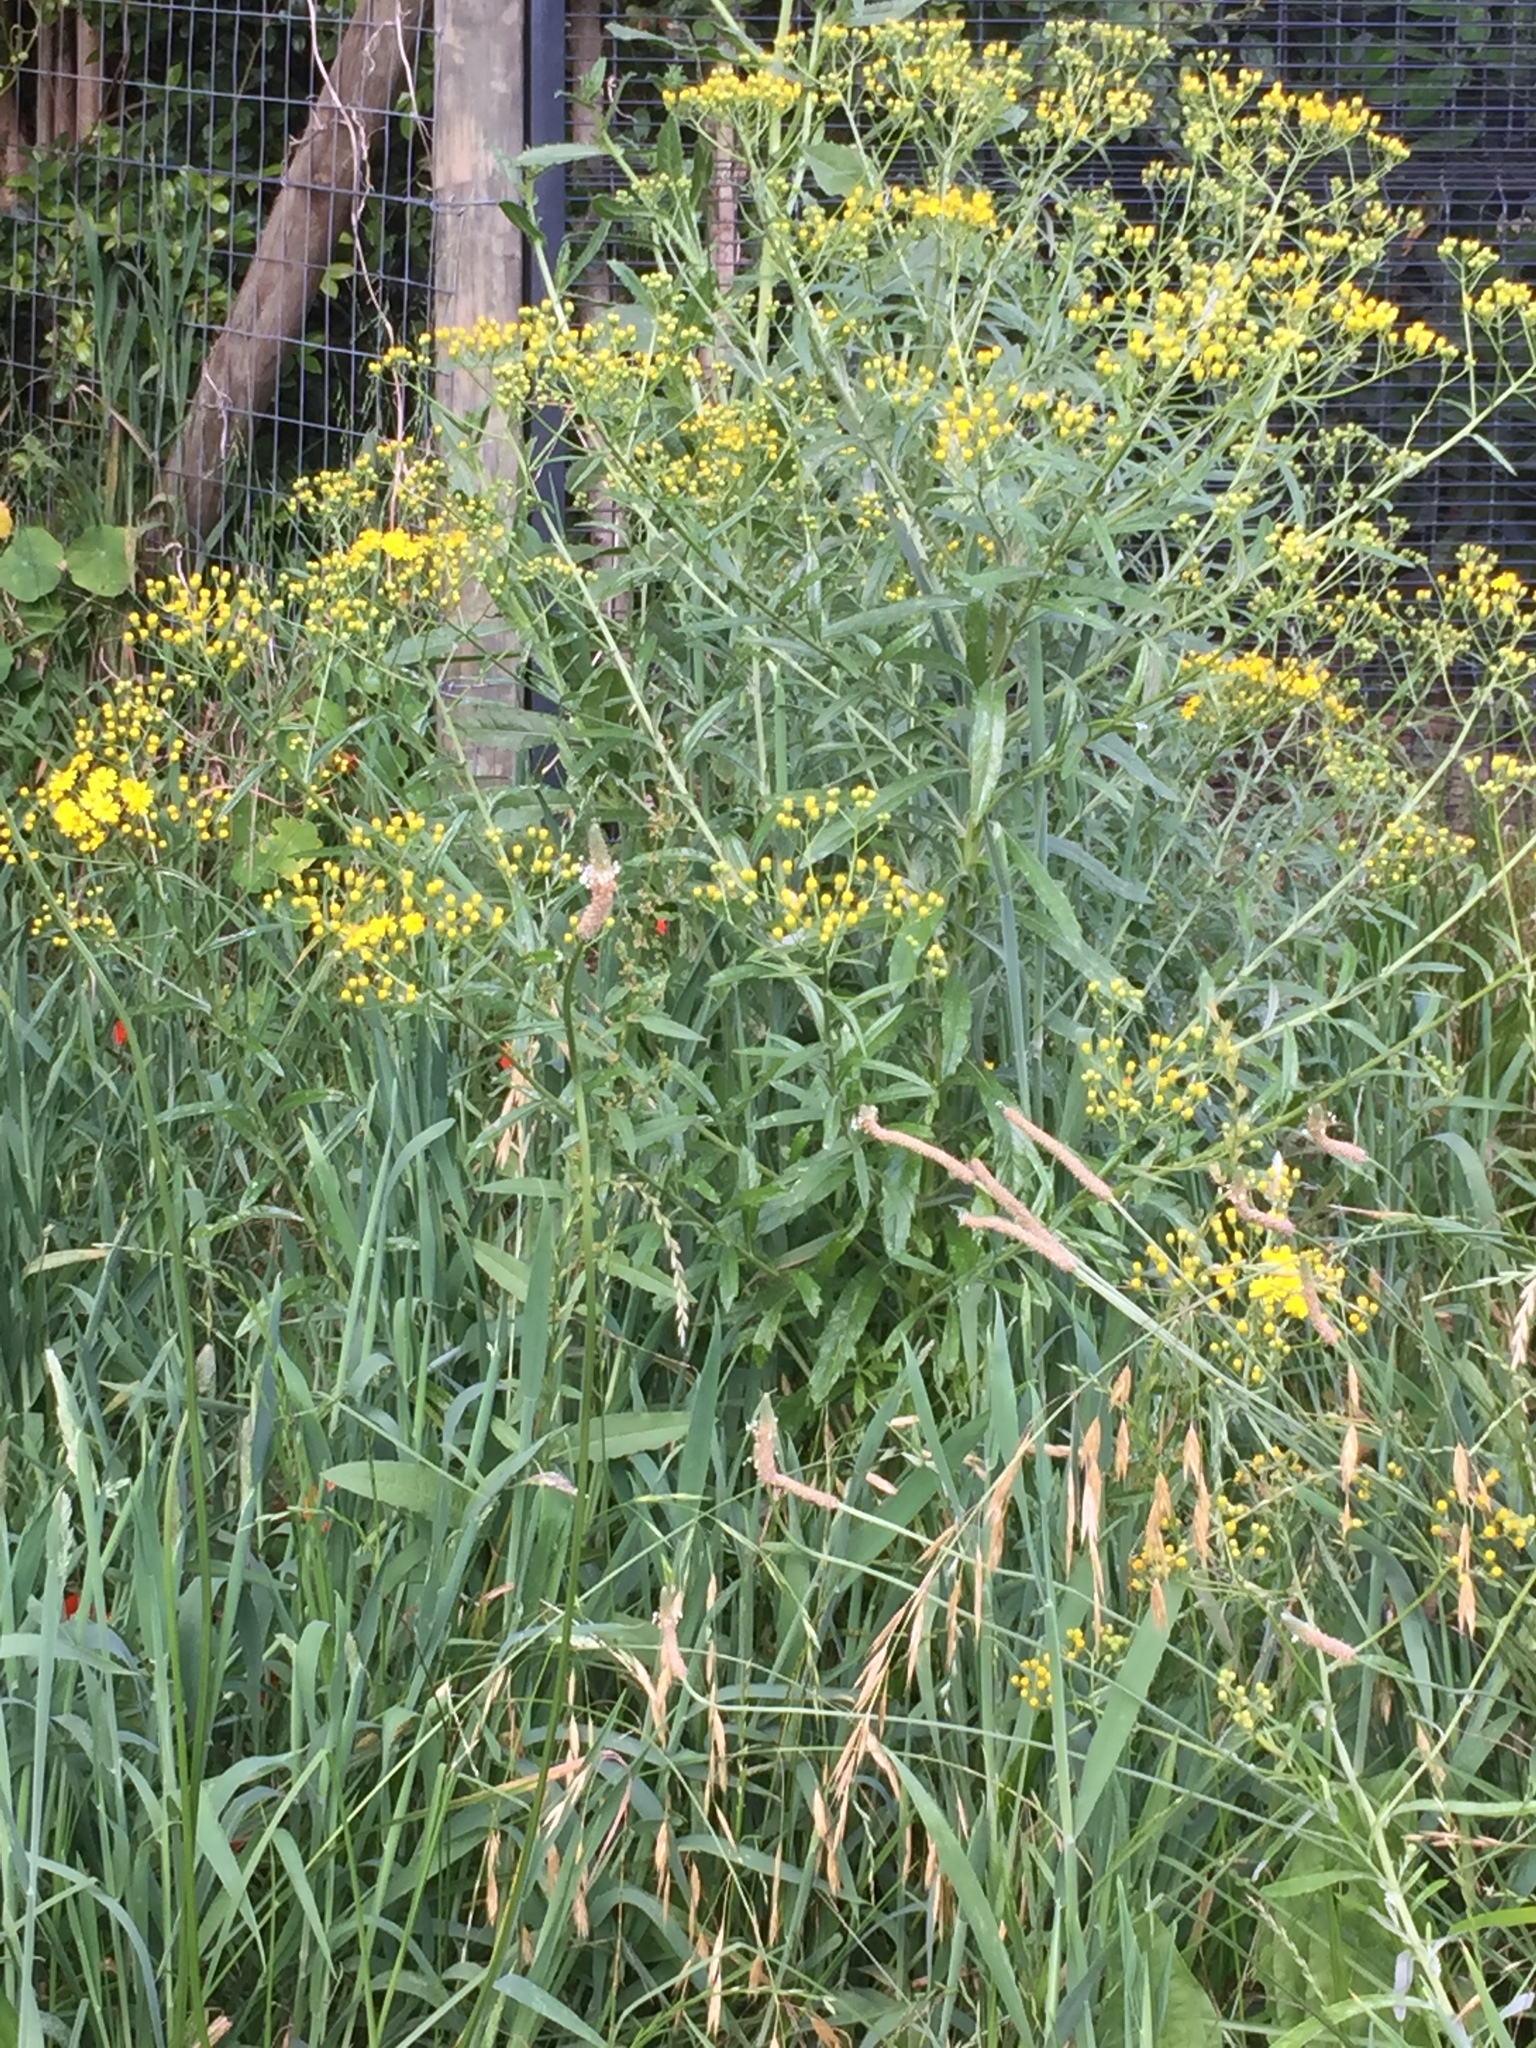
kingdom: Plantae
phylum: Tracheophyta
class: Magnoliopsida
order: Asterales
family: Asteraceae
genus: Senecio
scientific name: Senecio pterophorus
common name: Shoddy ragwort
